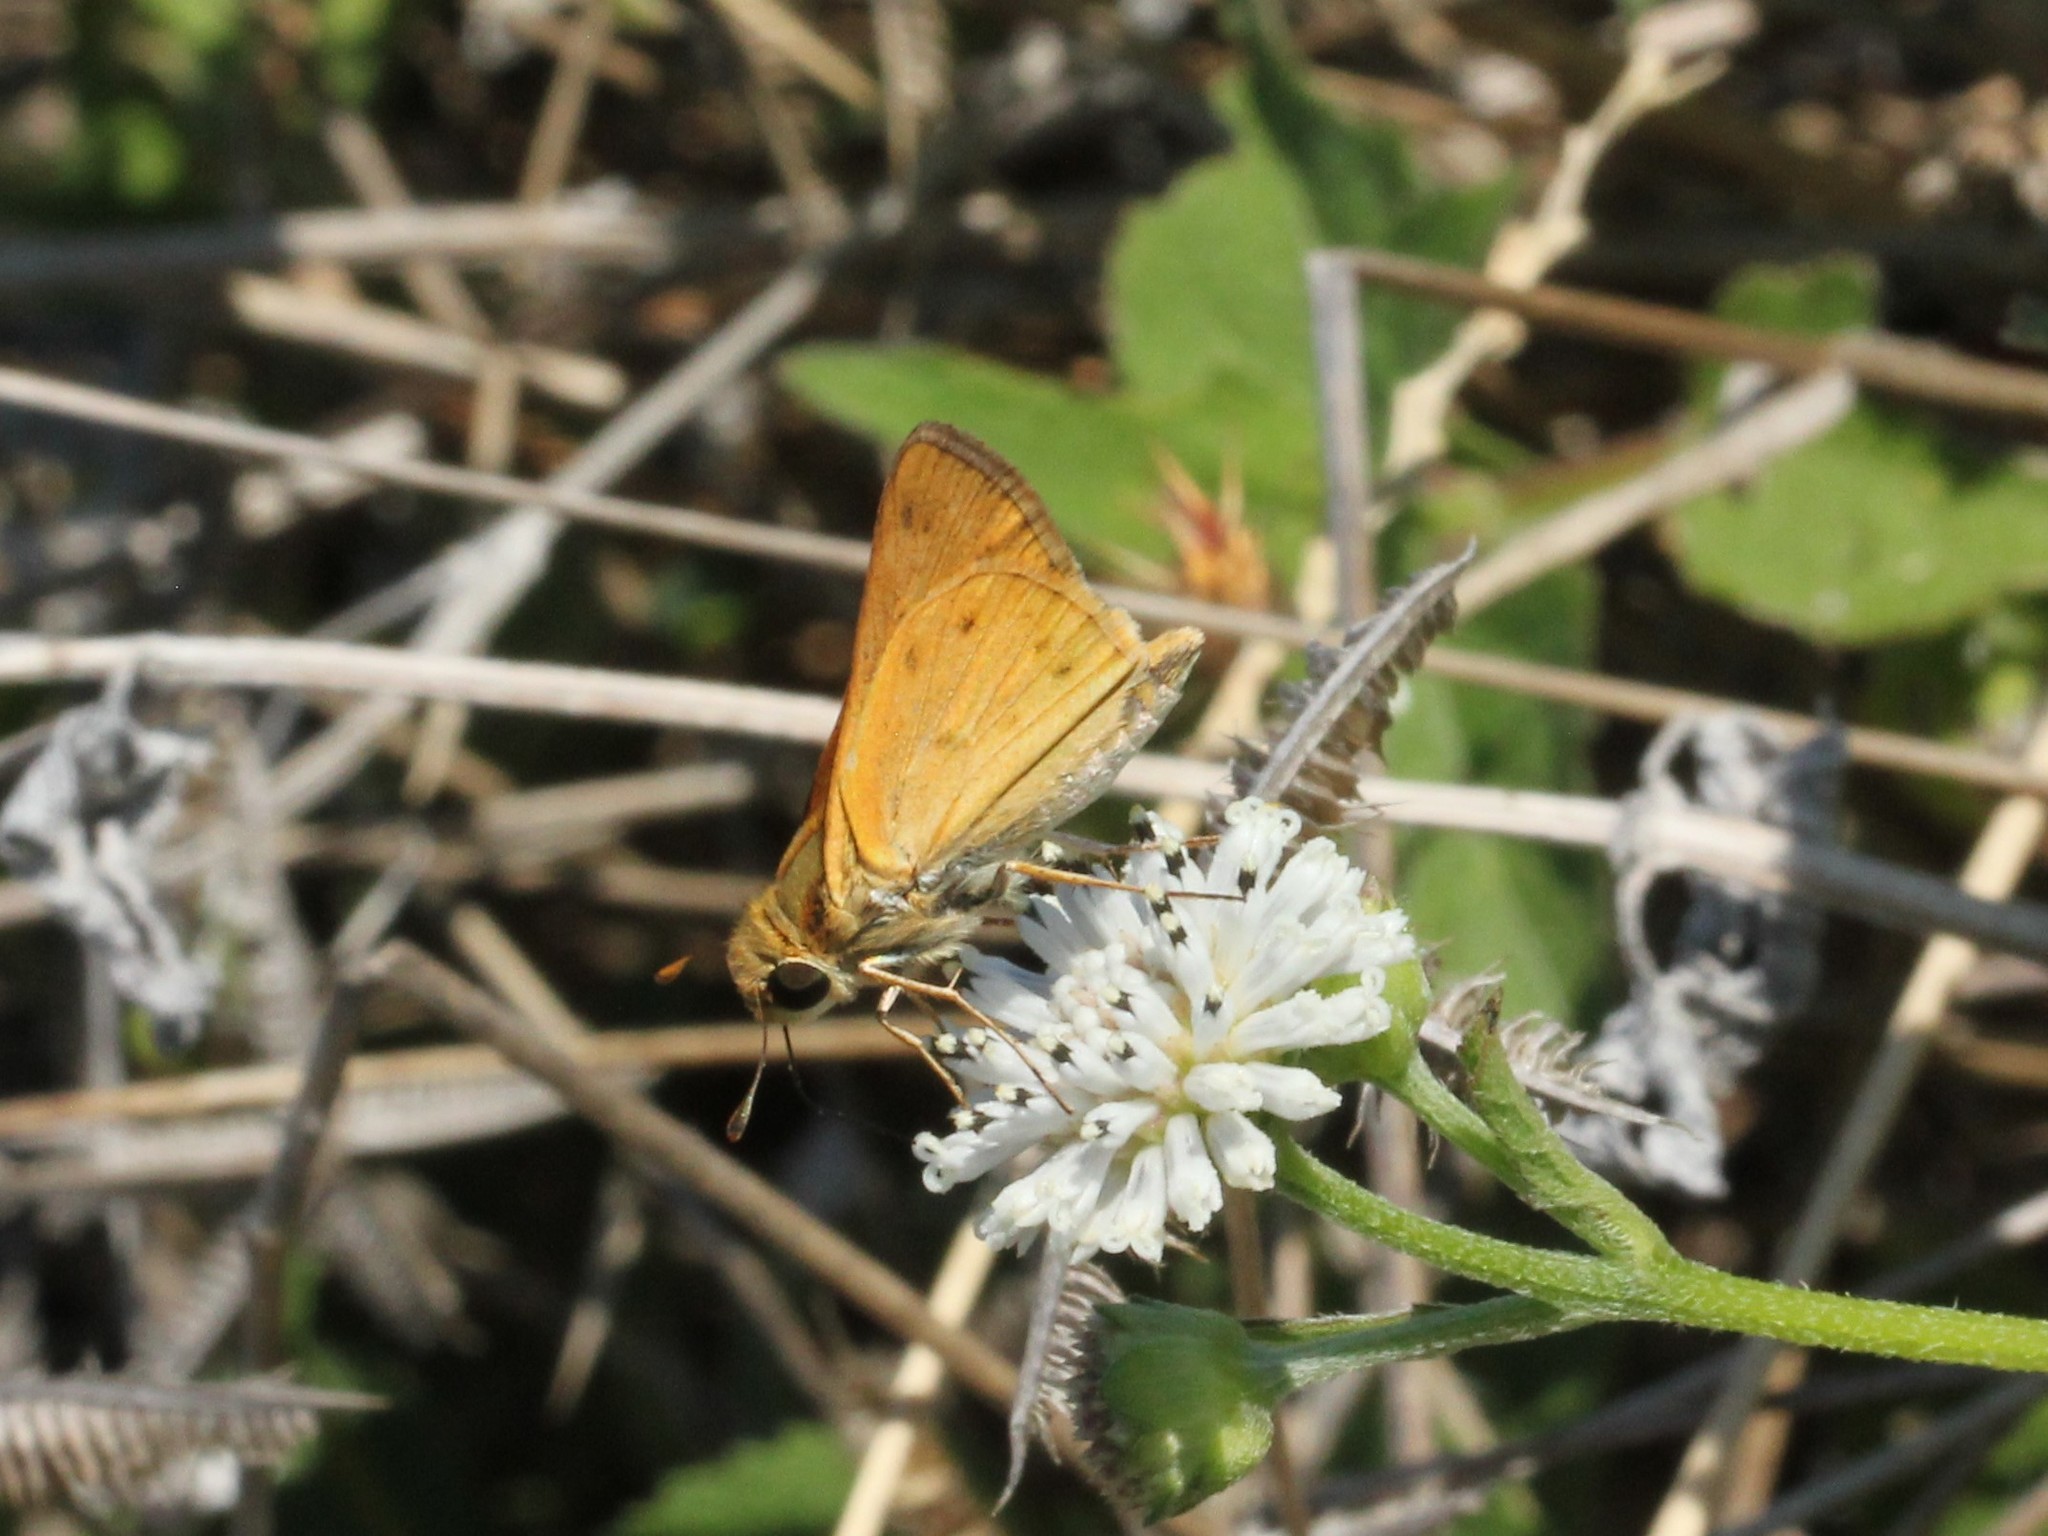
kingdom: Animalia
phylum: Arthropoda
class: Insecta
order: Lepidoptera
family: Hesperiidae
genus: Hylephila
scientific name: Hylephila phyleus
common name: Fiery skipper
